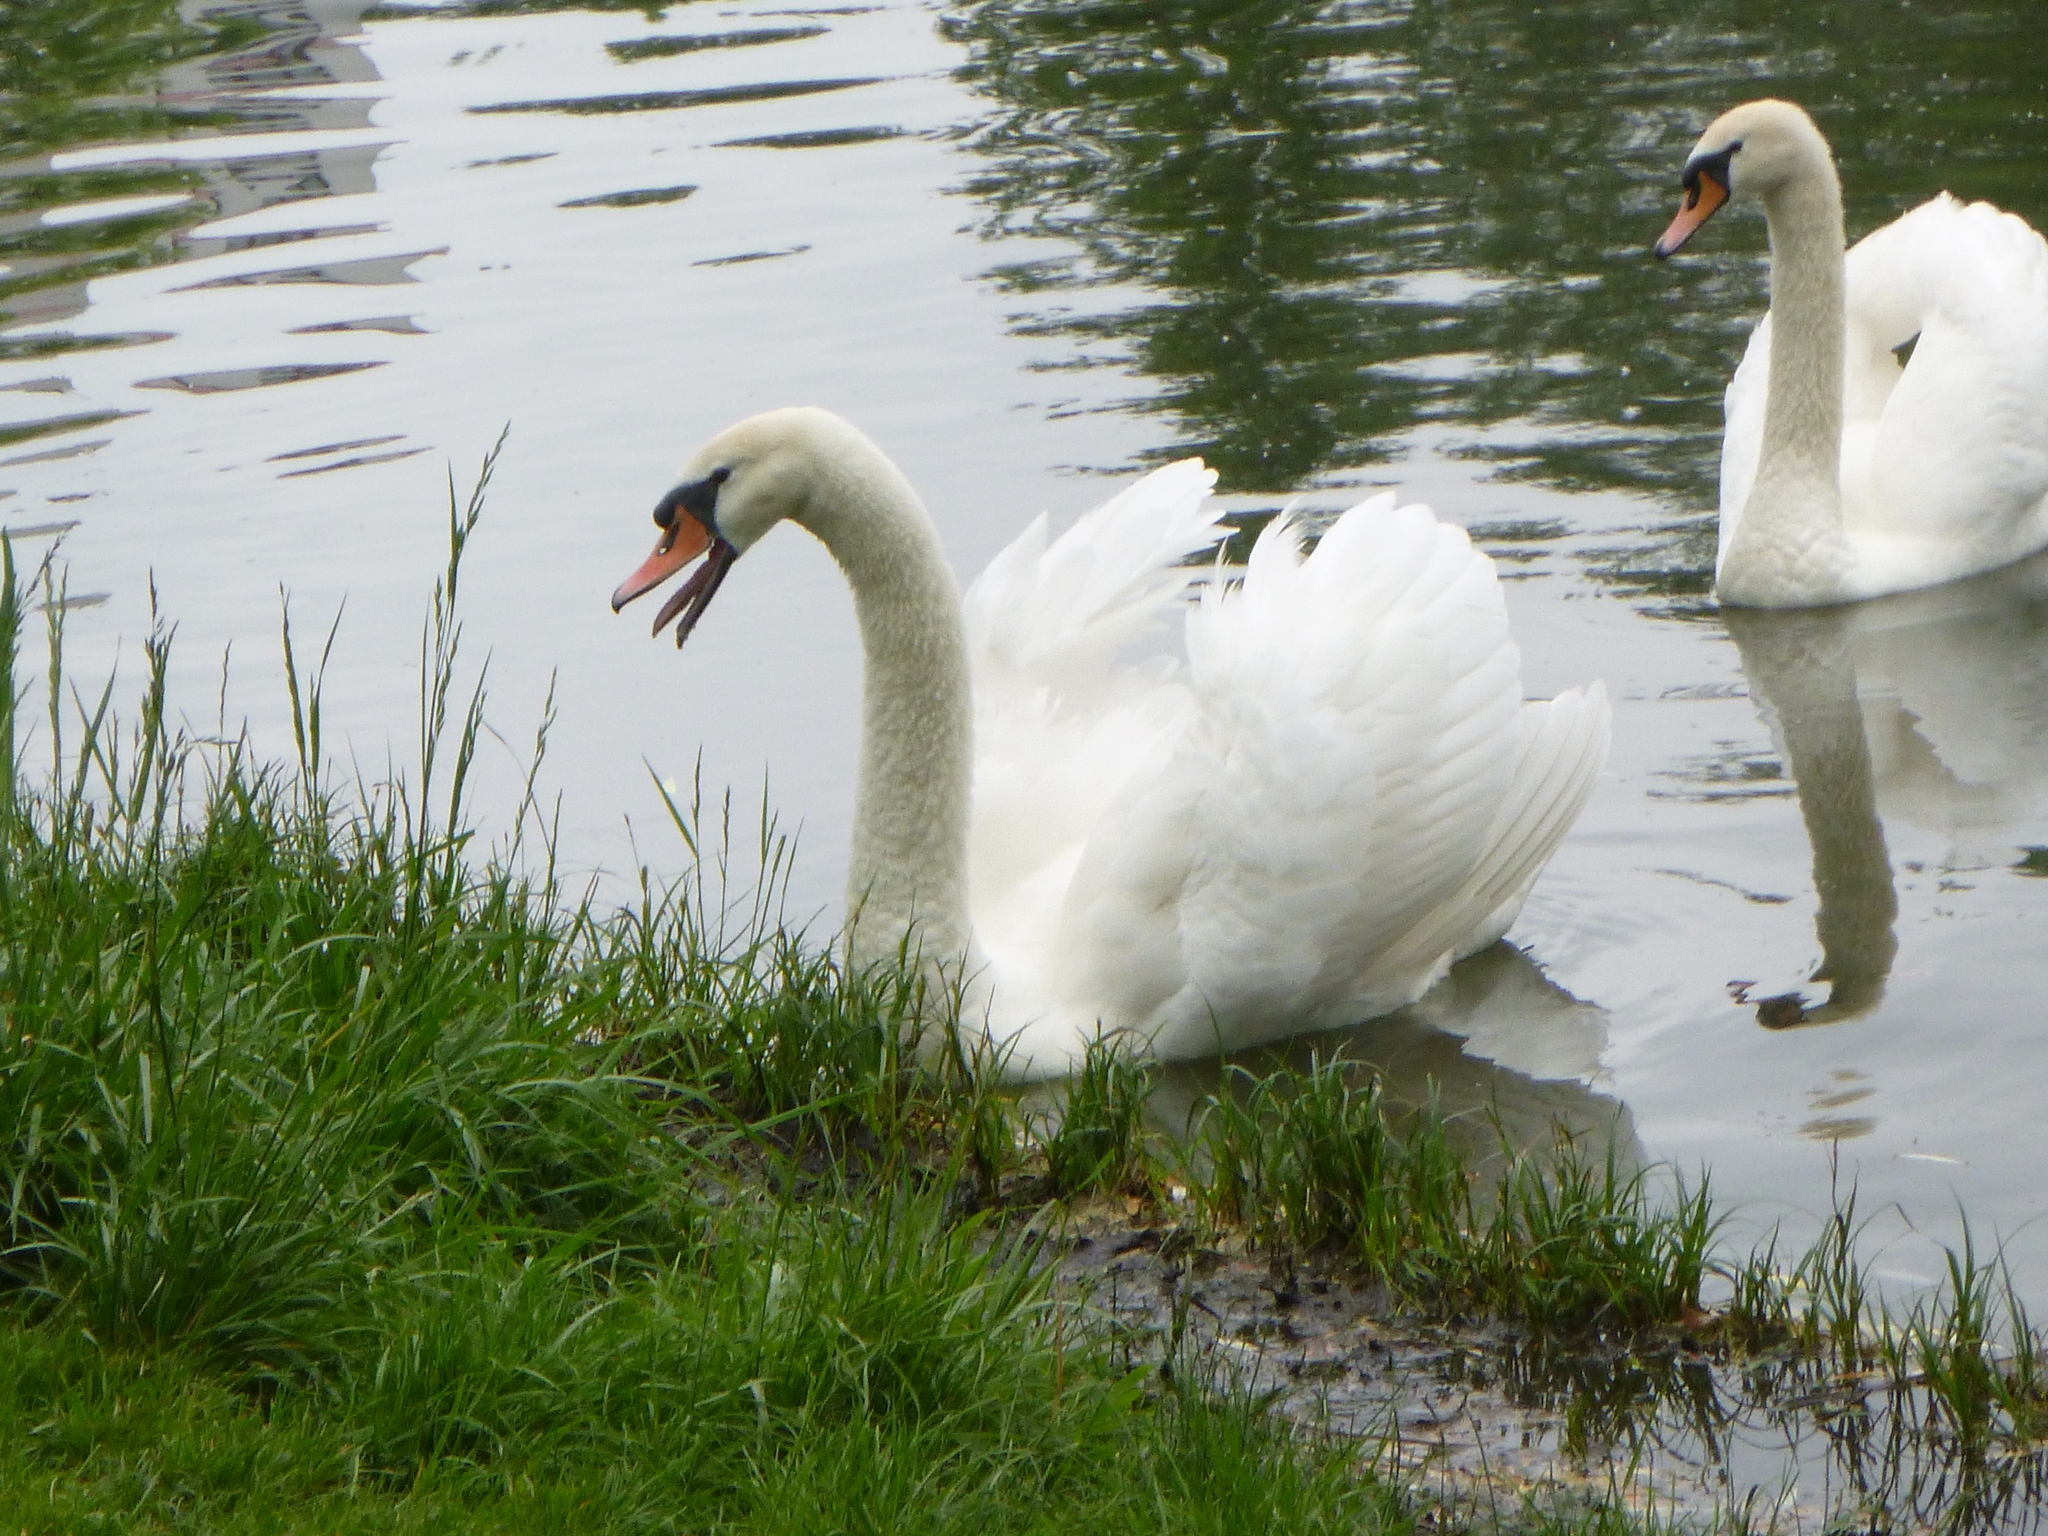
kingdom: Animalia
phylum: Chordata
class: Aves
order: Anseriformes
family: Anatidae
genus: Cygnus
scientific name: Cygnus olor
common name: Mute swan
